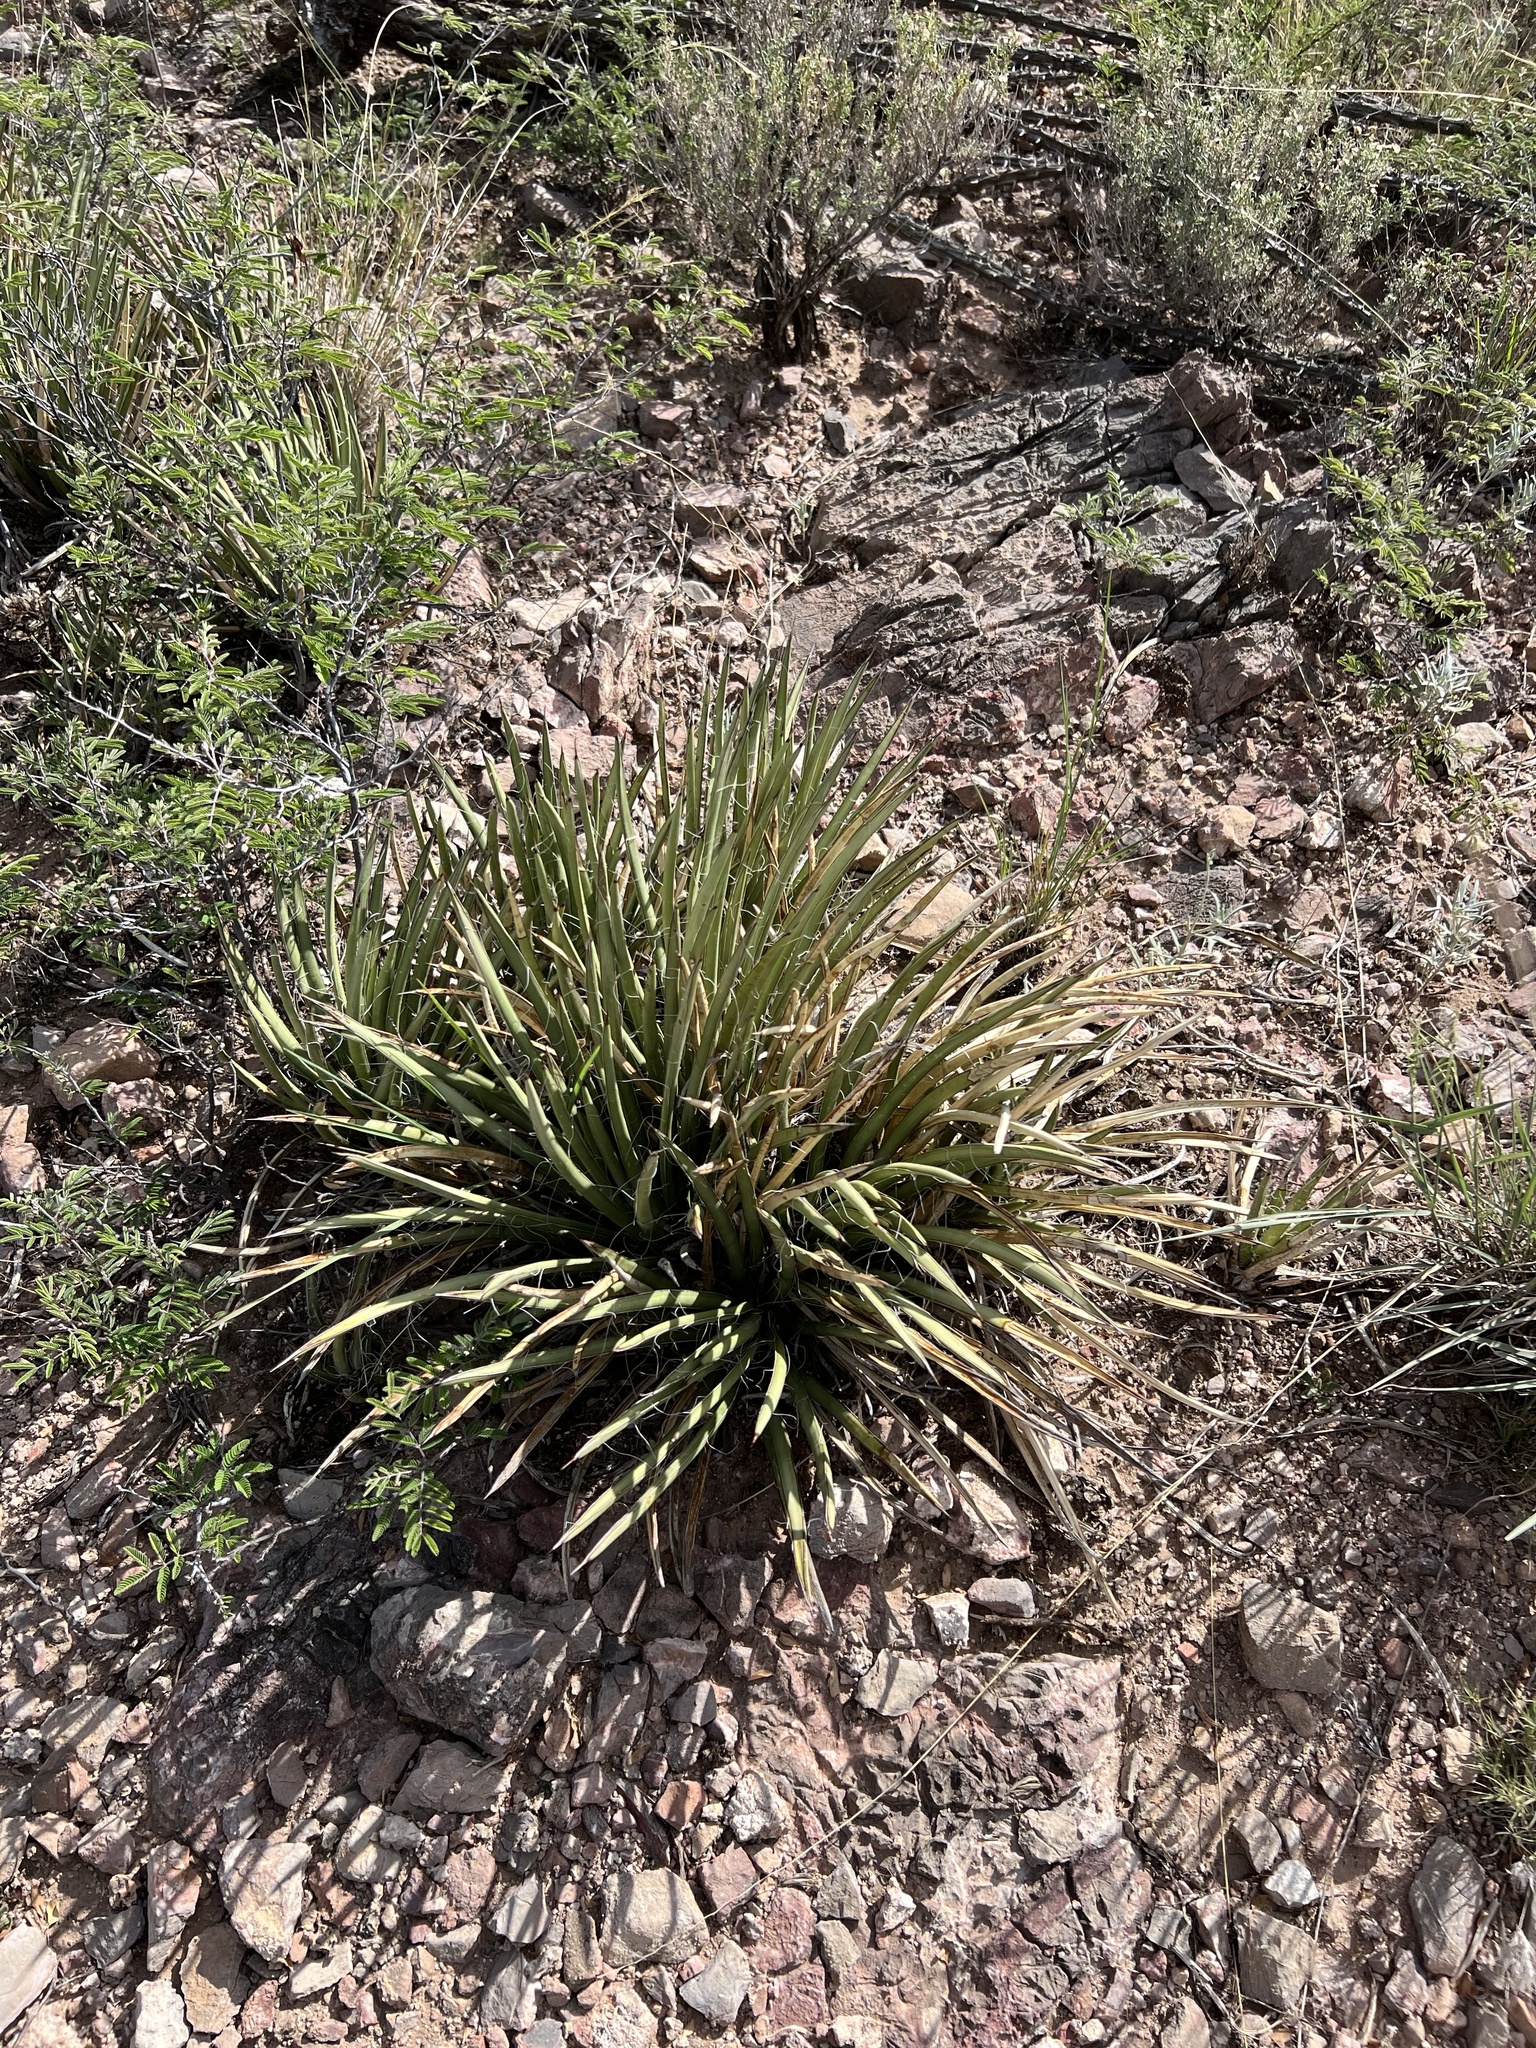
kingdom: Plantae
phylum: Tracheophyta
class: Liliopsida
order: Asparagales
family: Asparagaceae
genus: Agave
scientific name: Agave schottii
